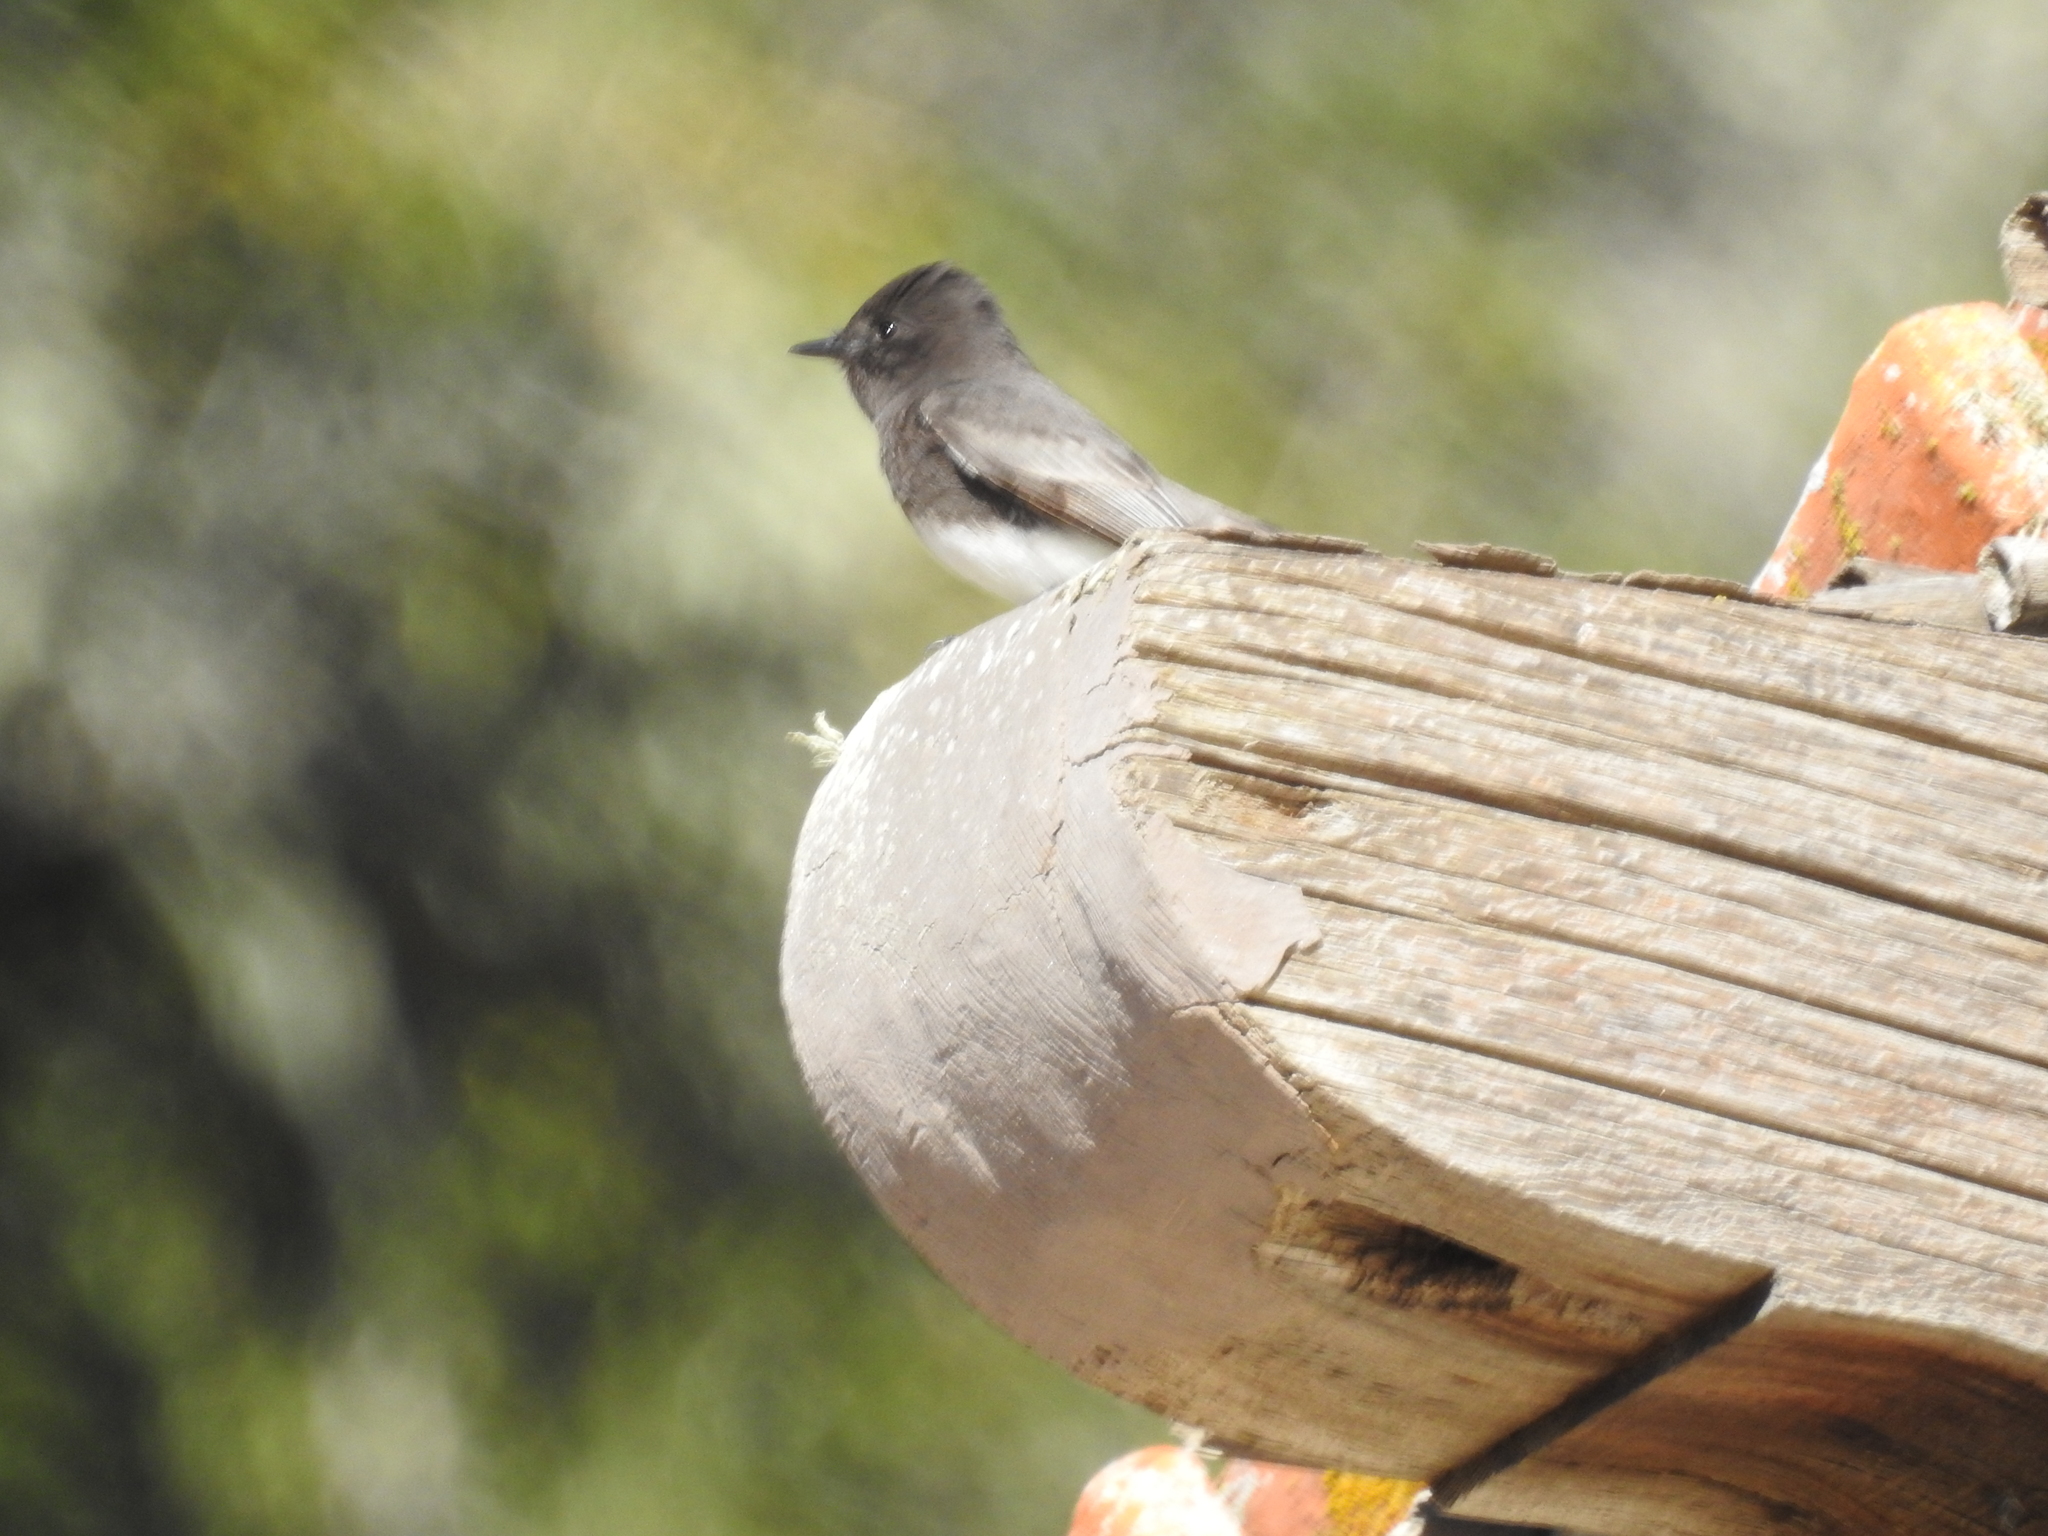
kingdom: Animalia
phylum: Chordata
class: Aves
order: Passeriformes
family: Tyrannidae
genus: Sayornis
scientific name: Sayornis nigricans
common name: Black phoebe
